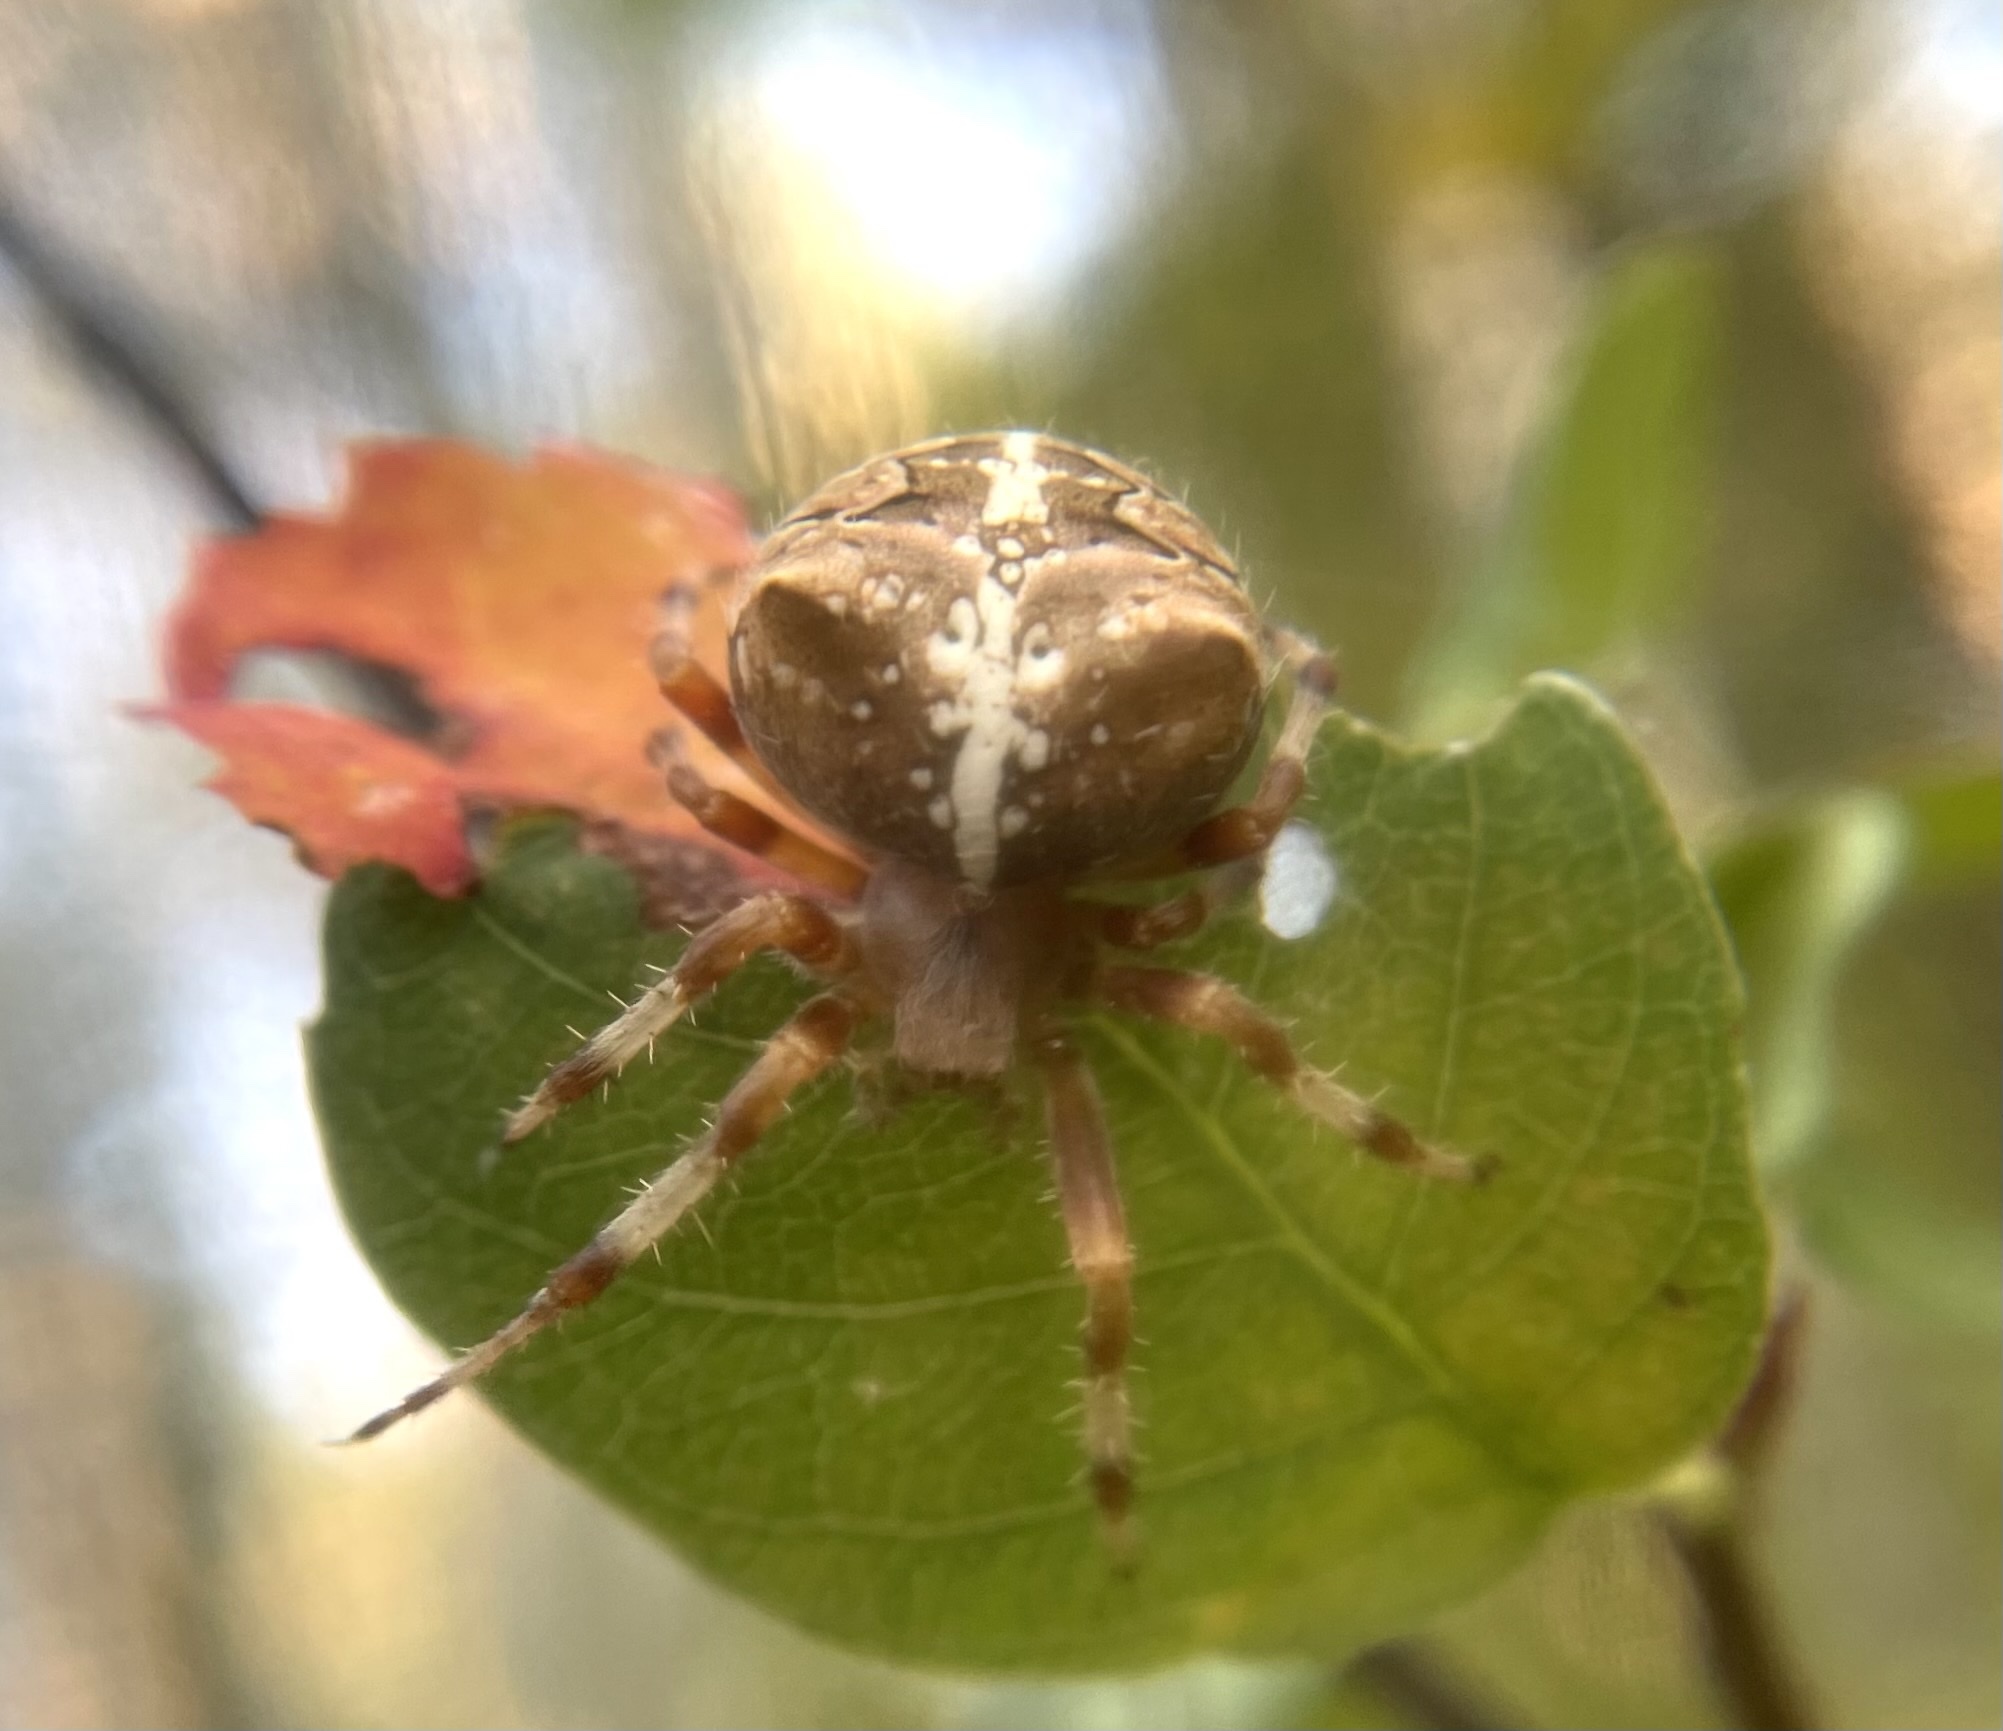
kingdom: Animalia
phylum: Arthropoda
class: Arachnida
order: Araneae
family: Araneidae
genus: Araneus
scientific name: Araneus gemmoides
